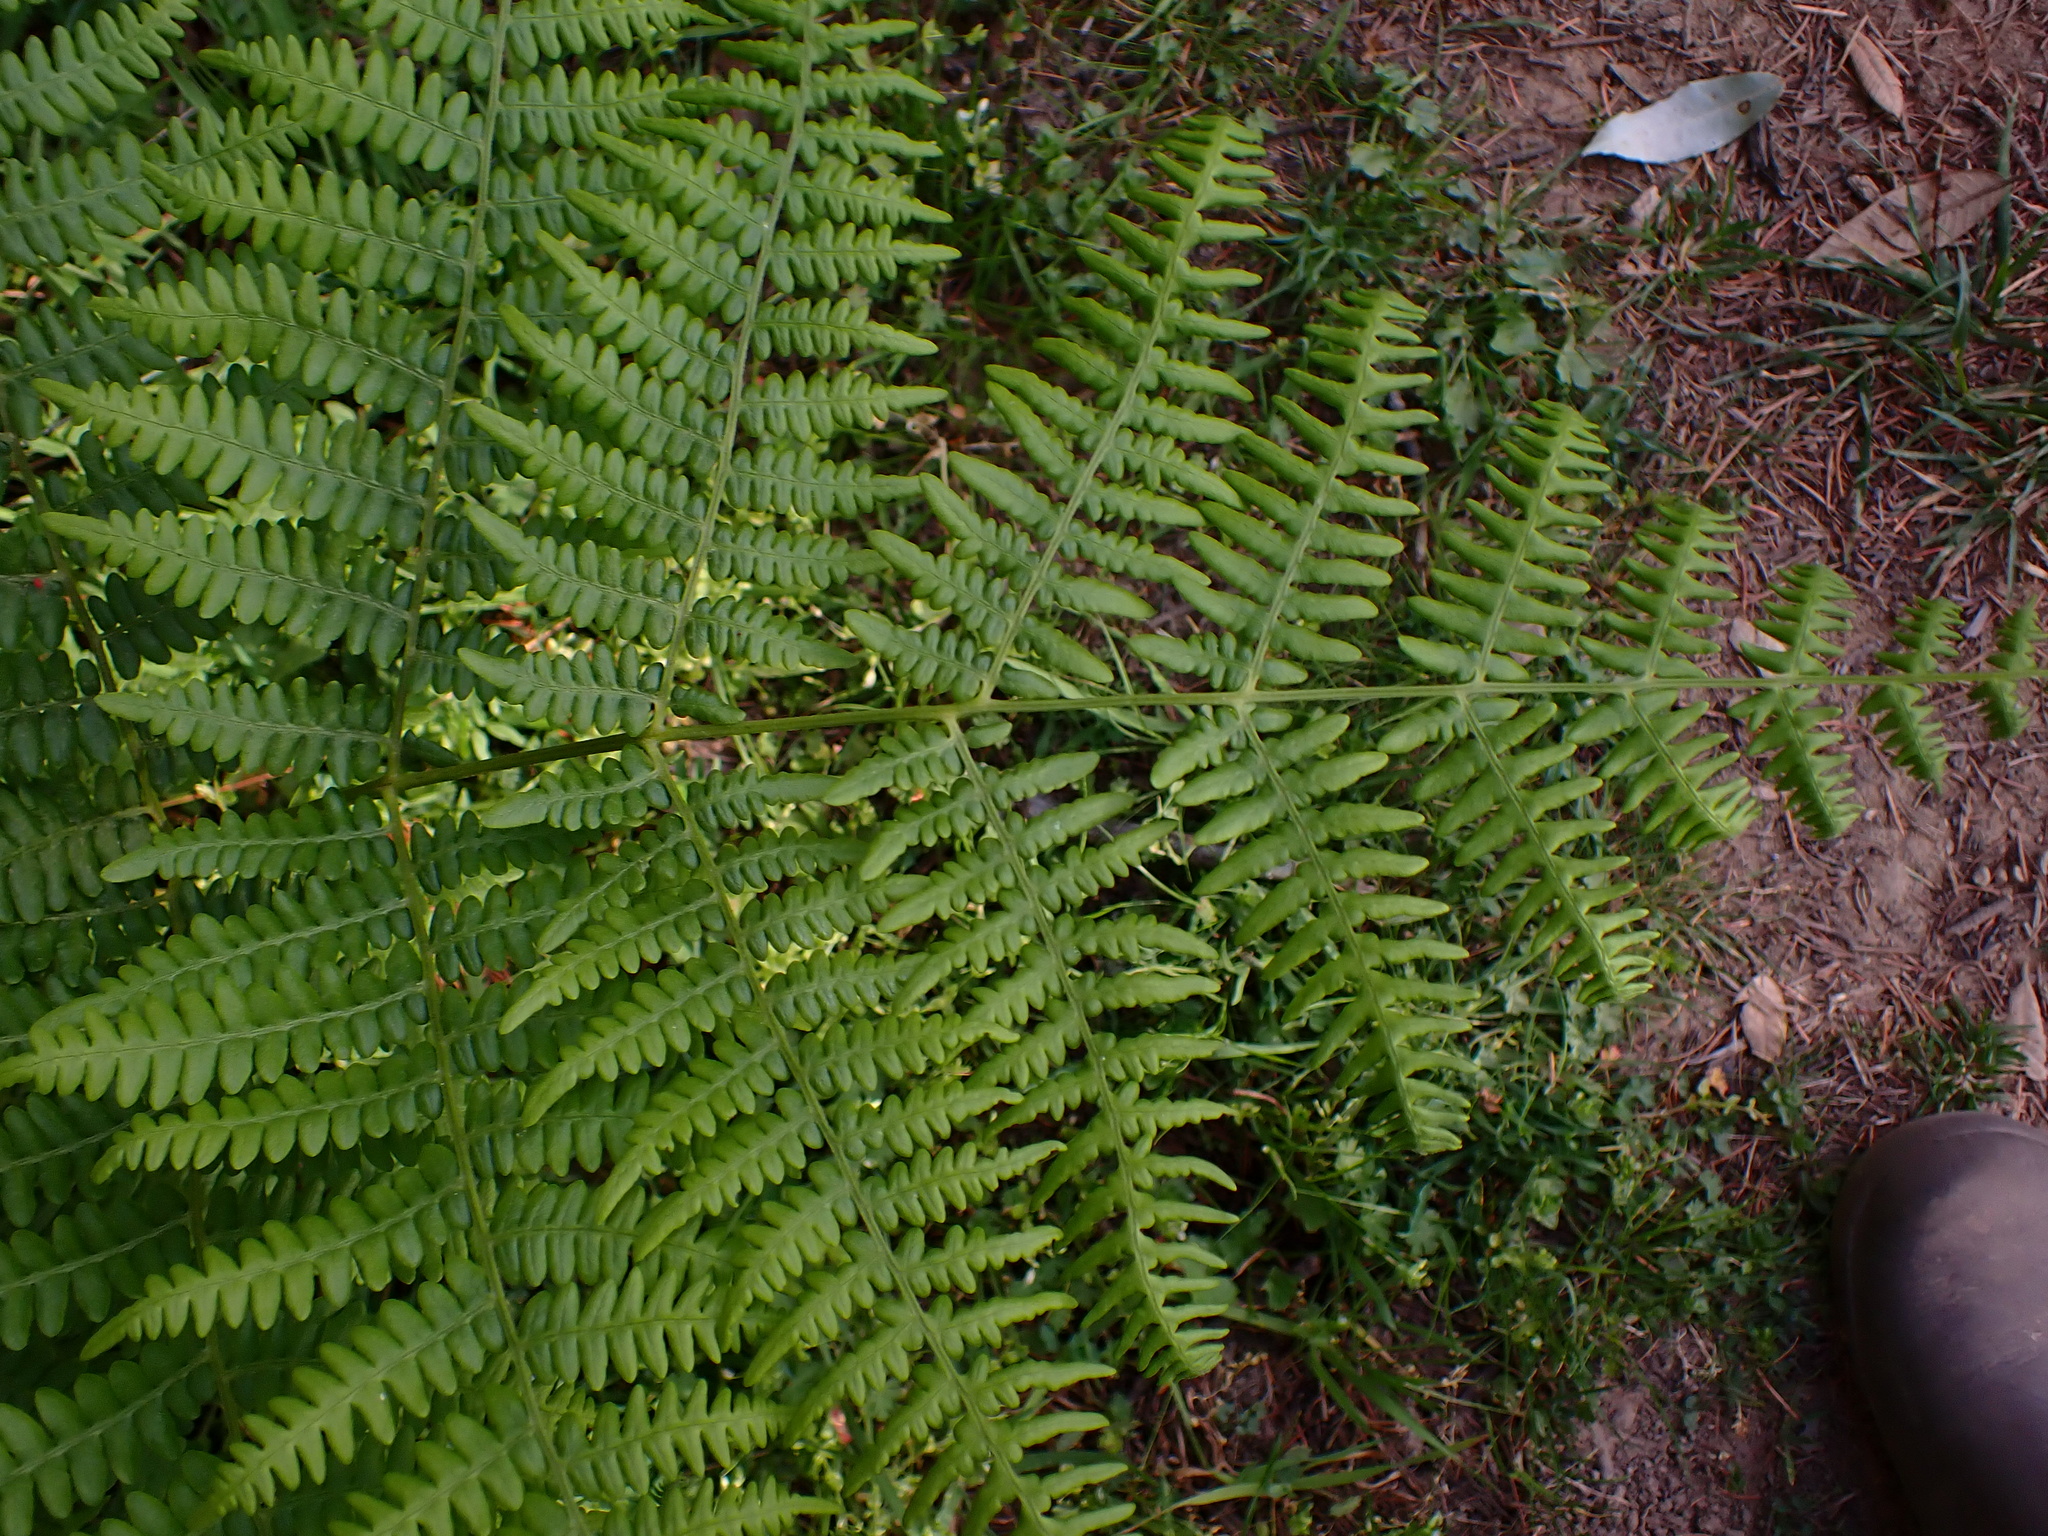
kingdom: Plantae
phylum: Tracheophyta
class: Polypodiopsida
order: Polypodiales
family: Dennstaedtiaceae
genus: Pteridium
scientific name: Pteridium aquilinum
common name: Bracken
